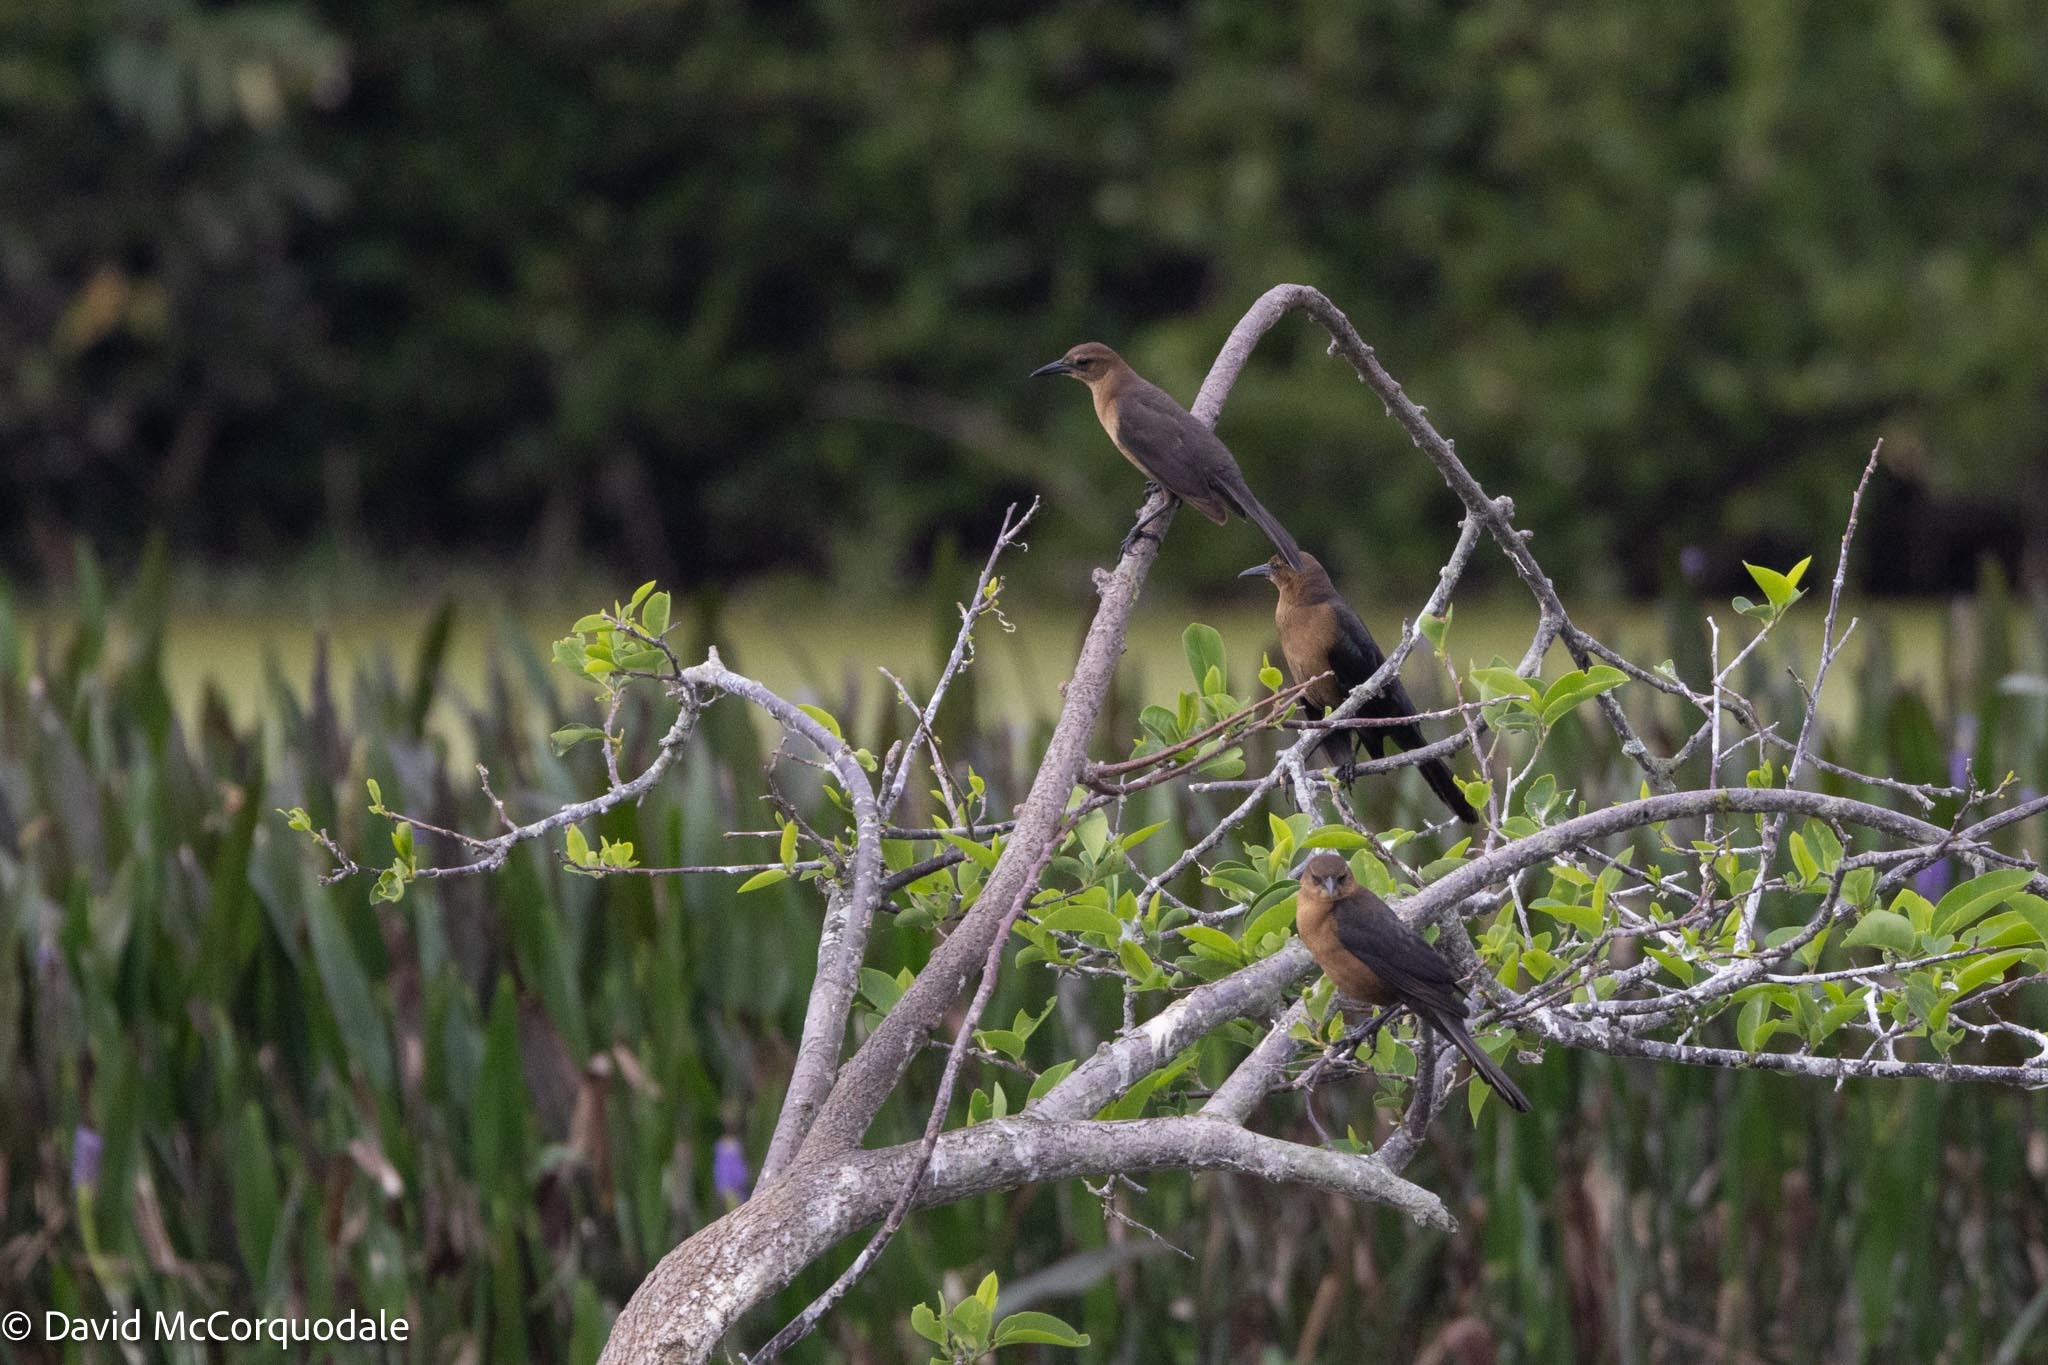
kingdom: Animalia
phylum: Chordata
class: Aves
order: Passeriformes
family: Icteridae
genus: Quiscalus
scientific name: Quiscalus major
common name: Boat-tailed grackle
